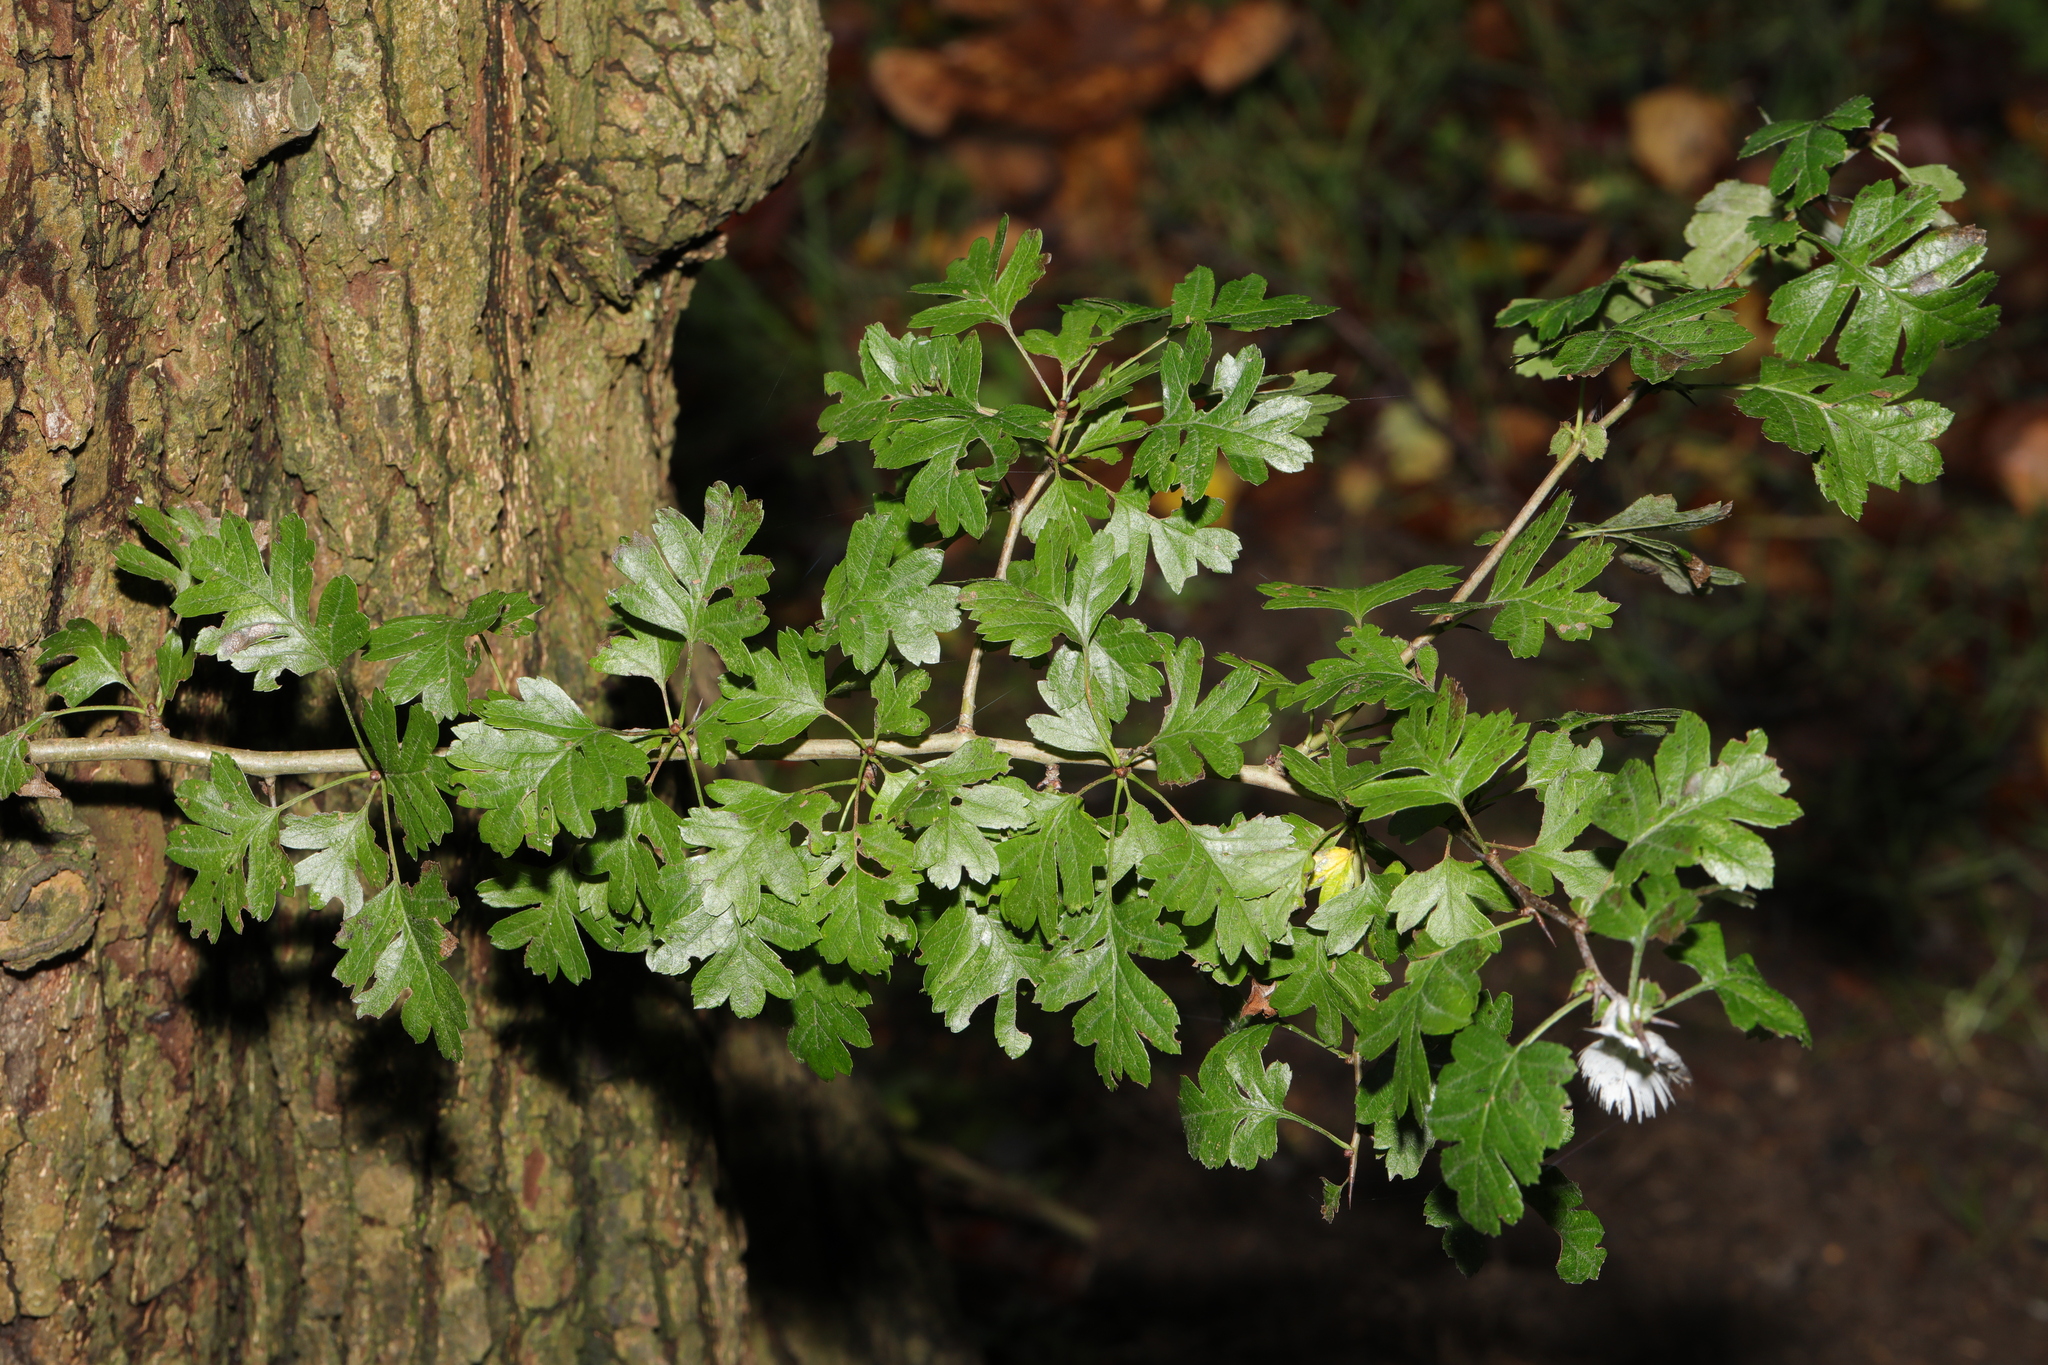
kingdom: Plantae
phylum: Tracheophyta
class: Magnoliopsida
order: Rosales
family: Rosaceae
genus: Crataegus
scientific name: Crataegus monogyna
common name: Hawthorn
